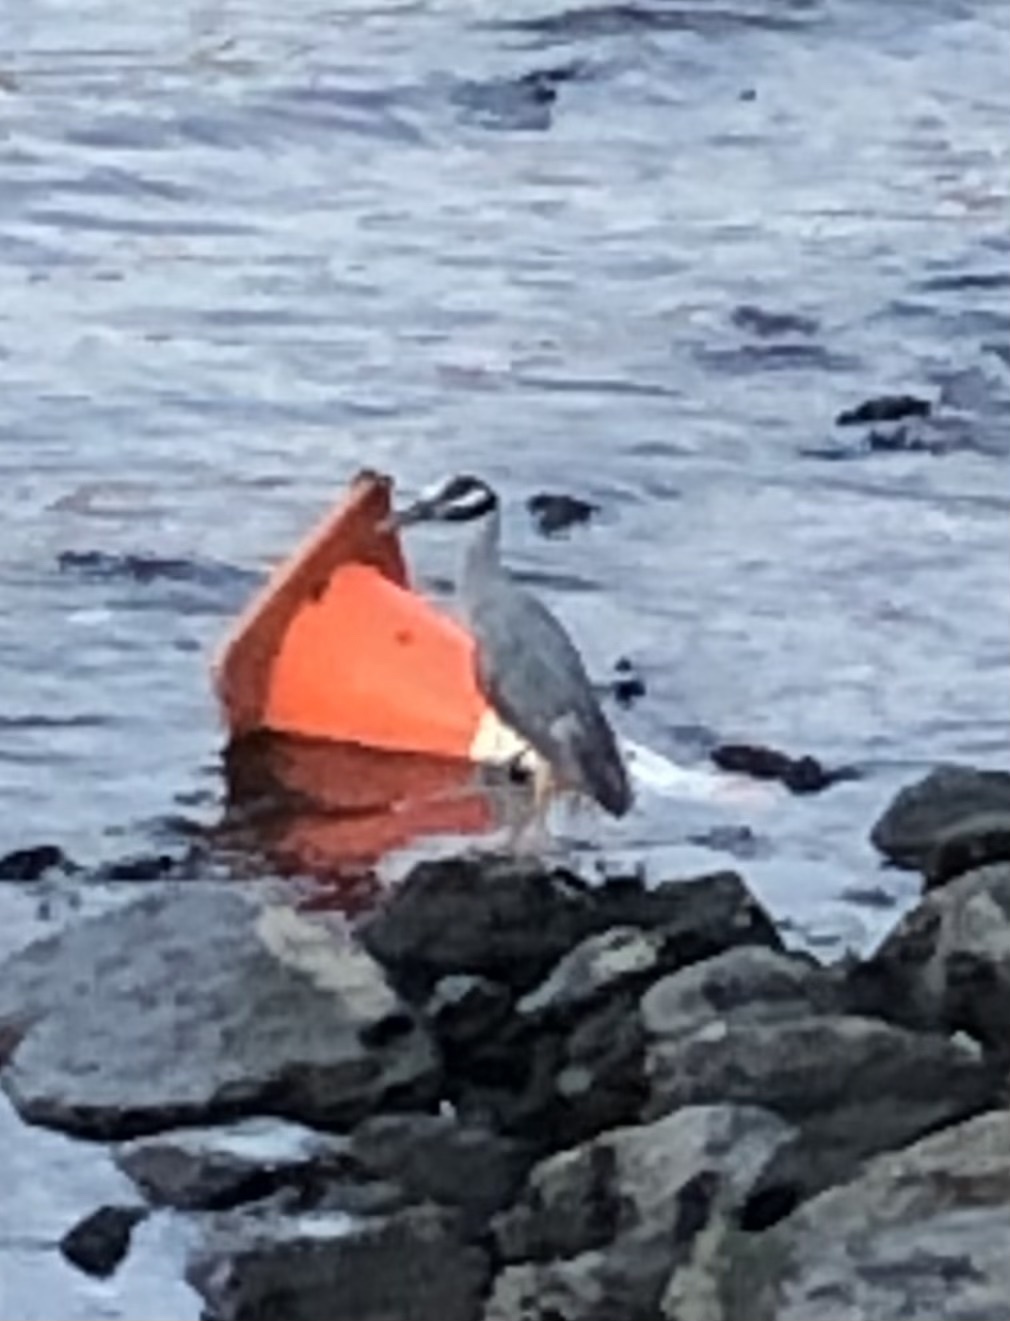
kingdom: Animalia
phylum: Chordata
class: Aves
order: Pelecaniformes
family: Ardeidae
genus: Nyctanassa
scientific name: Nyctanassa violacea
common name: Yellow-crowned night heron
